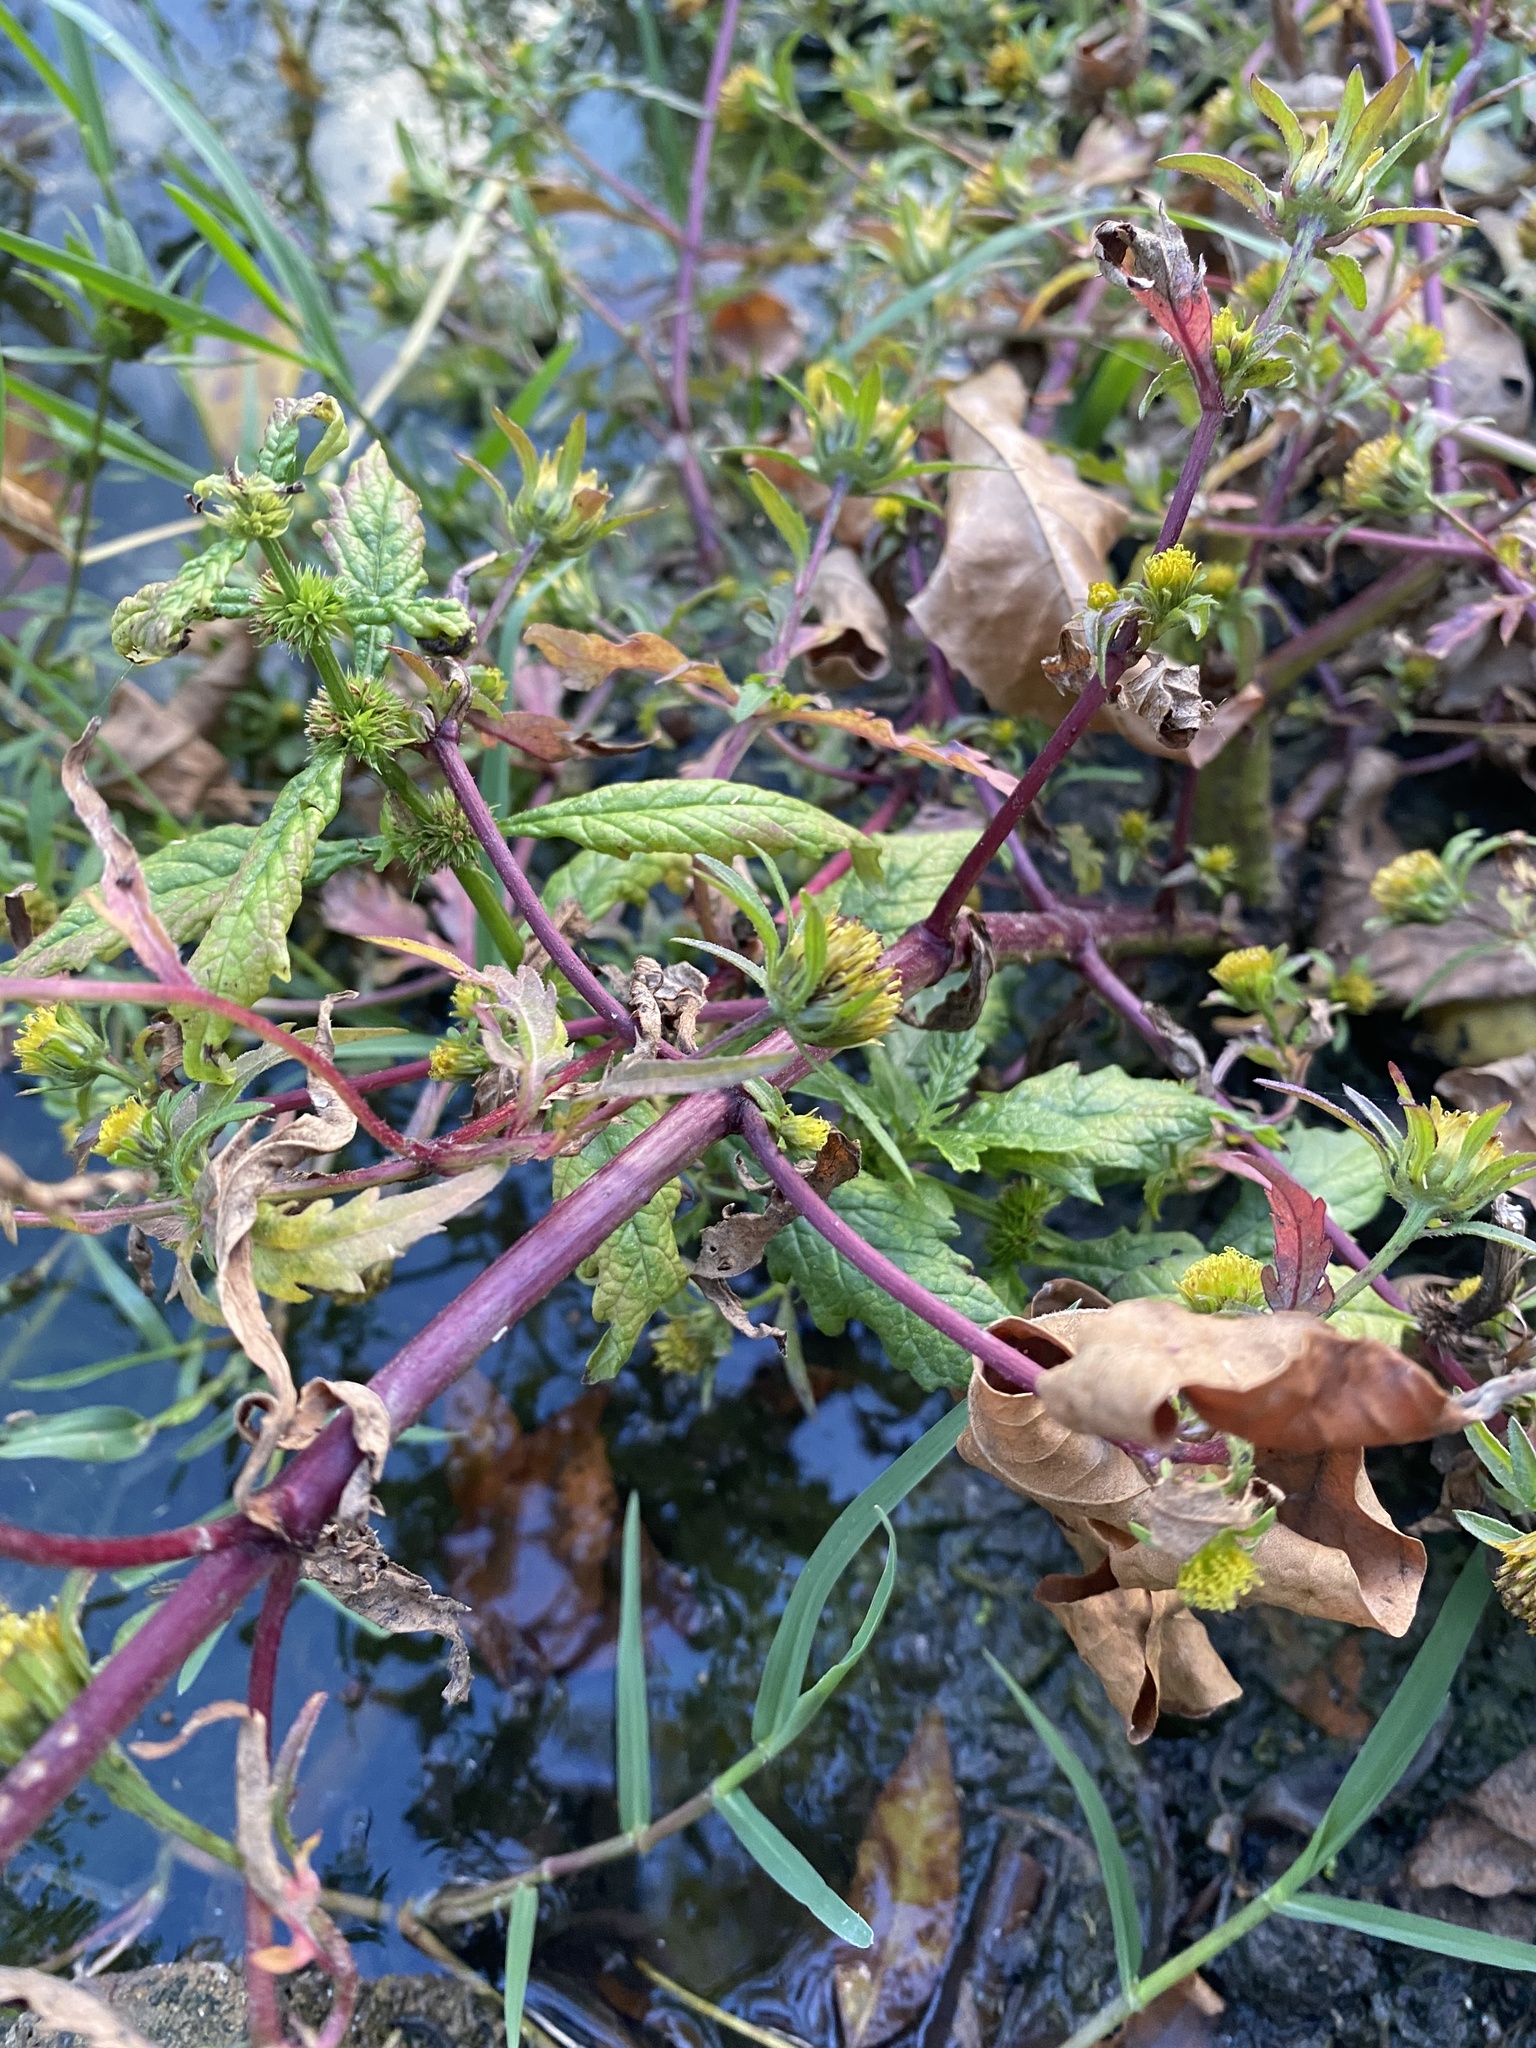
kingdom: Plantae
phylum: Tracheophyta
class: Magnoliopsida
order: Asterales
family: Asteraceae
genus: Bidens
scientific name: Bidens tripartita
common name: Trifid bur-marigold
